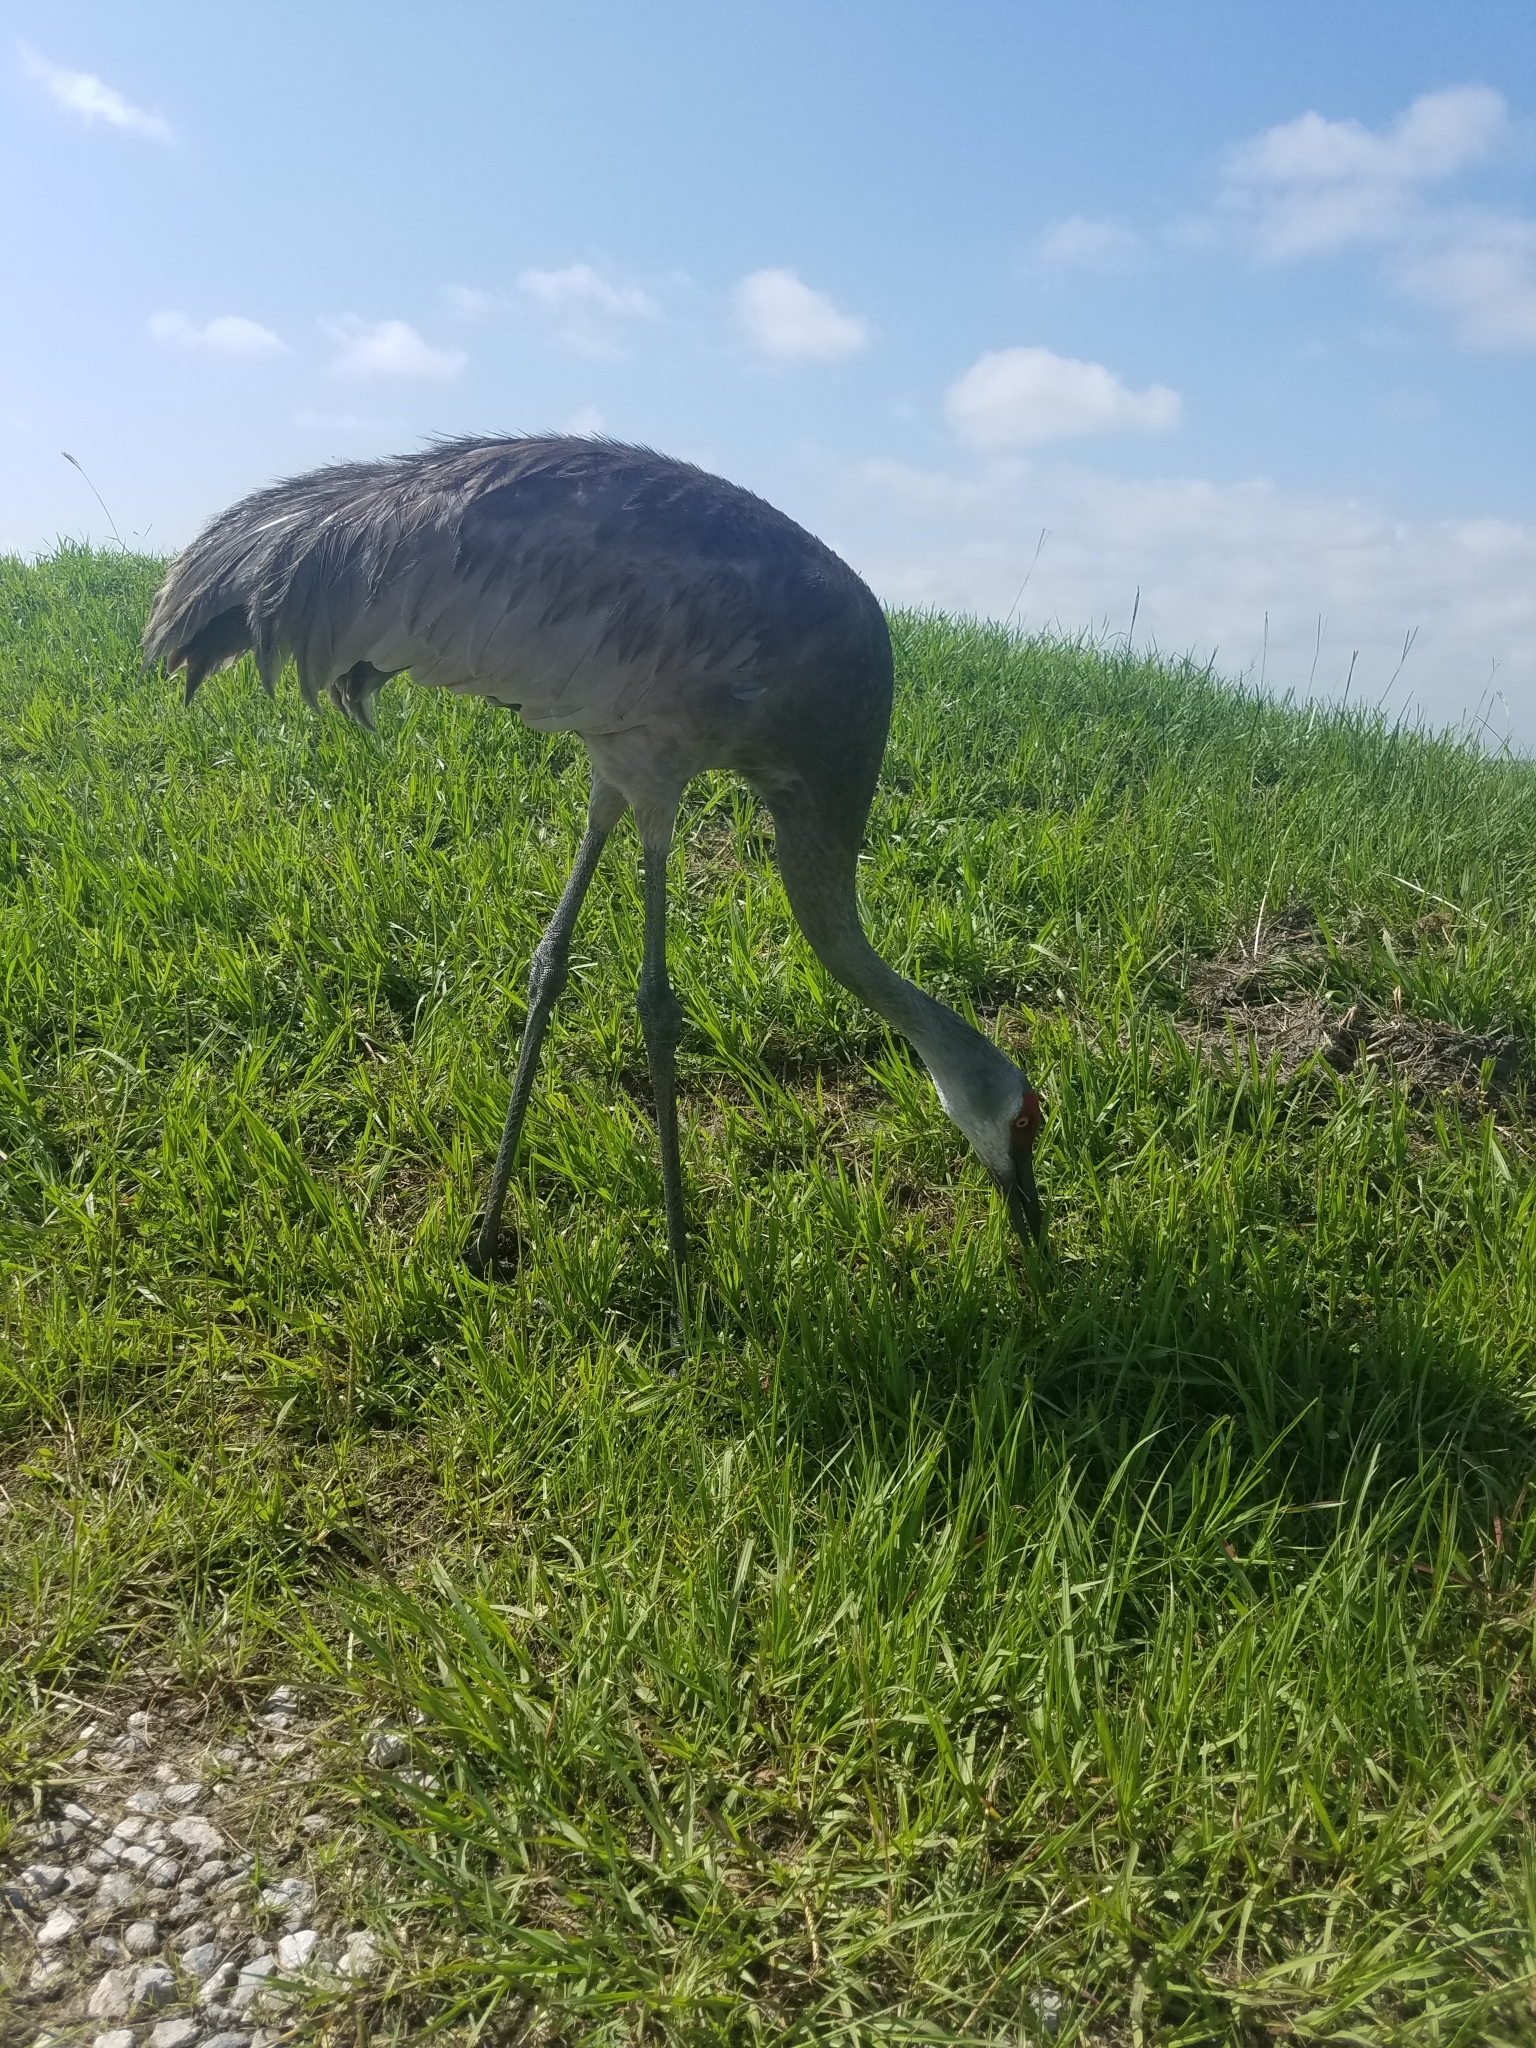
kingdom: Animalia
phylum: Chordata
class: Aves
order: Gruiformes
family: Gruidae
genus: Grus
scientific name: Grus canadensis
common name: Sandhill crane
